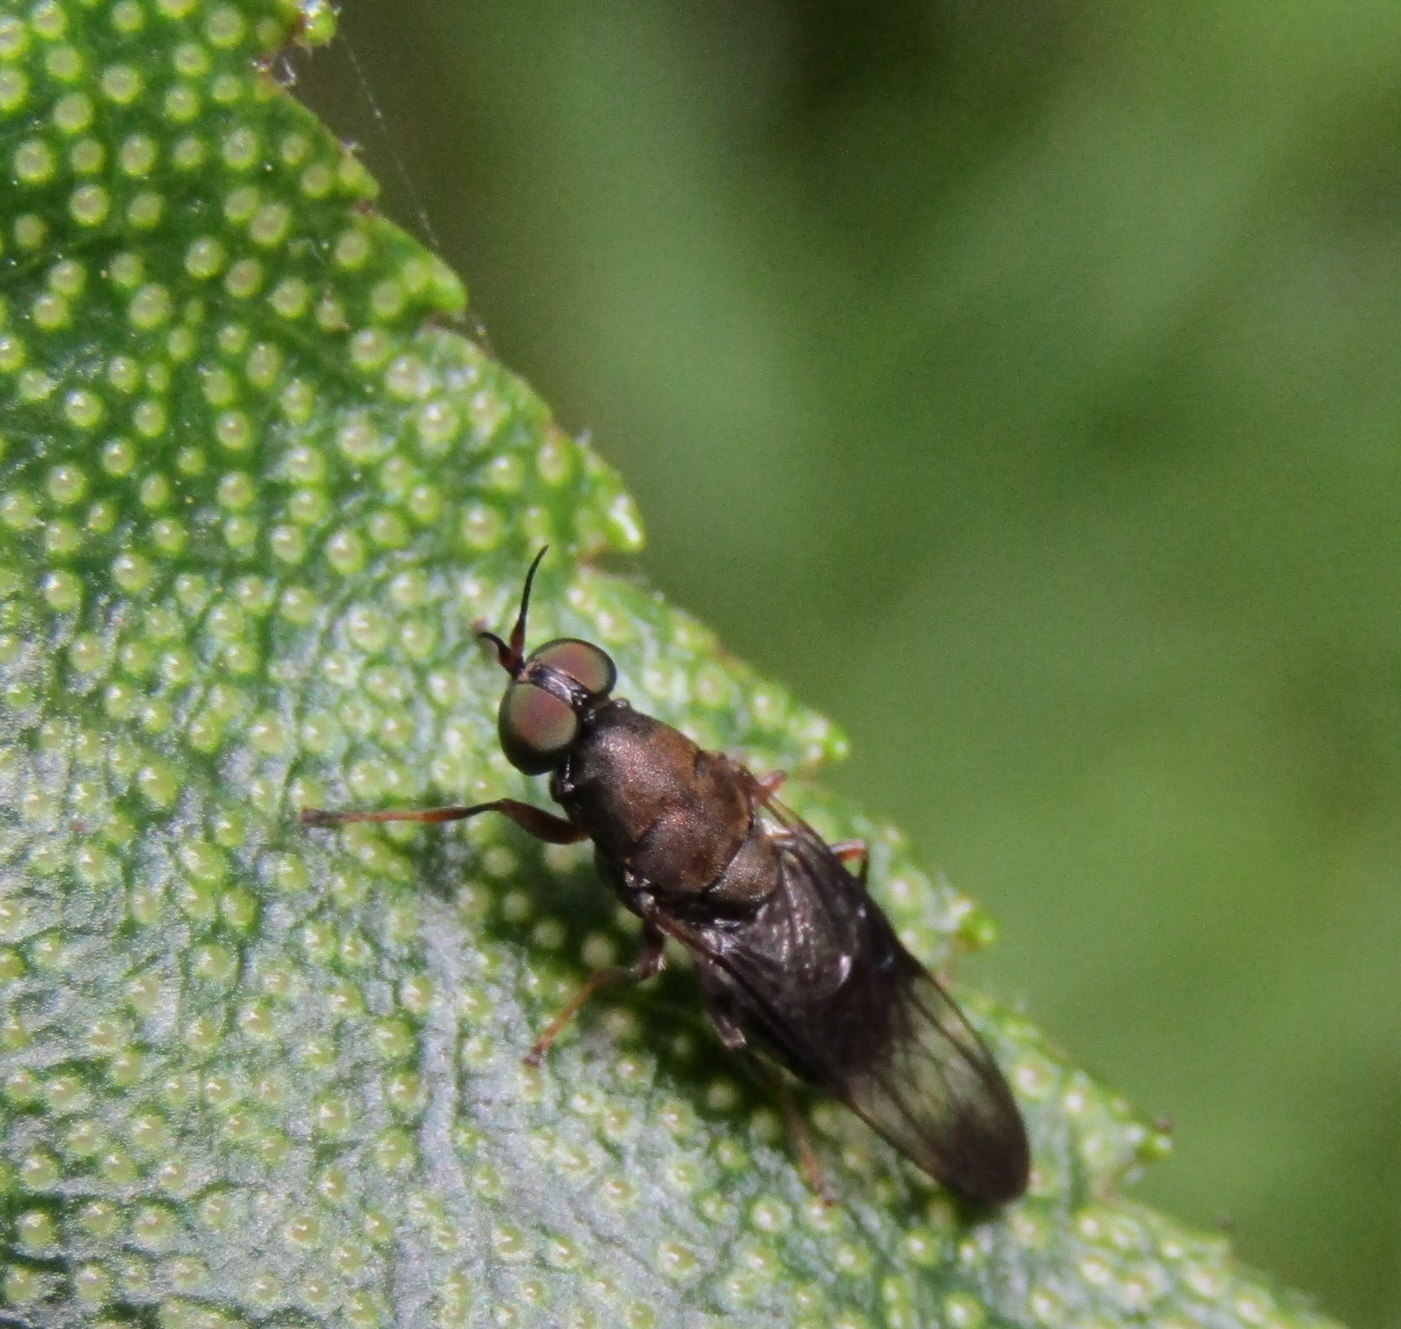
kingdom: Animalia
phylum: Arthropoda
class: Insecta
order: Diptera
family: Stratiomyidae
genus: Dysbiota
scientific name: Dysbiota peregrina
